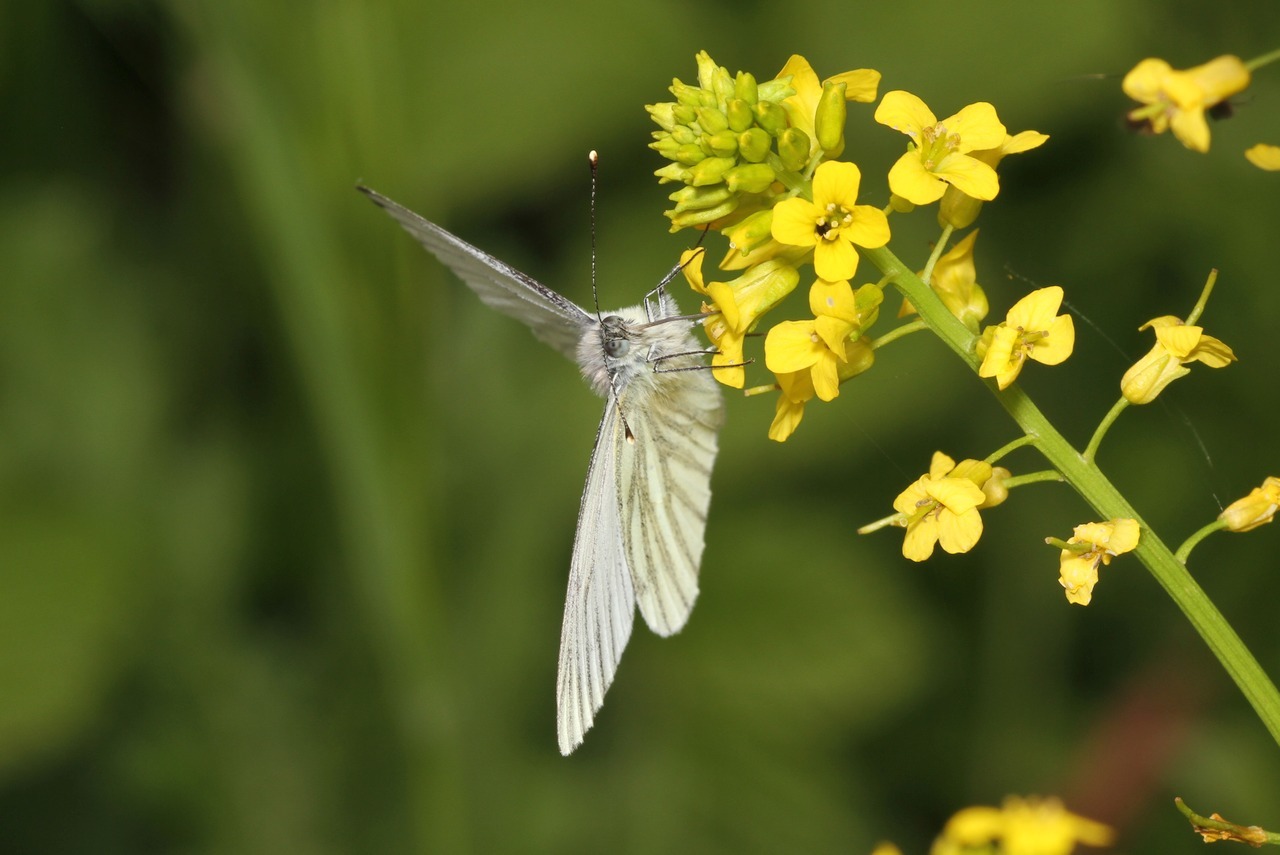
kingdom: Animalia
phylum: Arthropoda
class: Insecta
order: Lepidoptera
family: Pieridae
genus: Pieris
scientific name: Pieris napi
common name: Green-veined white
